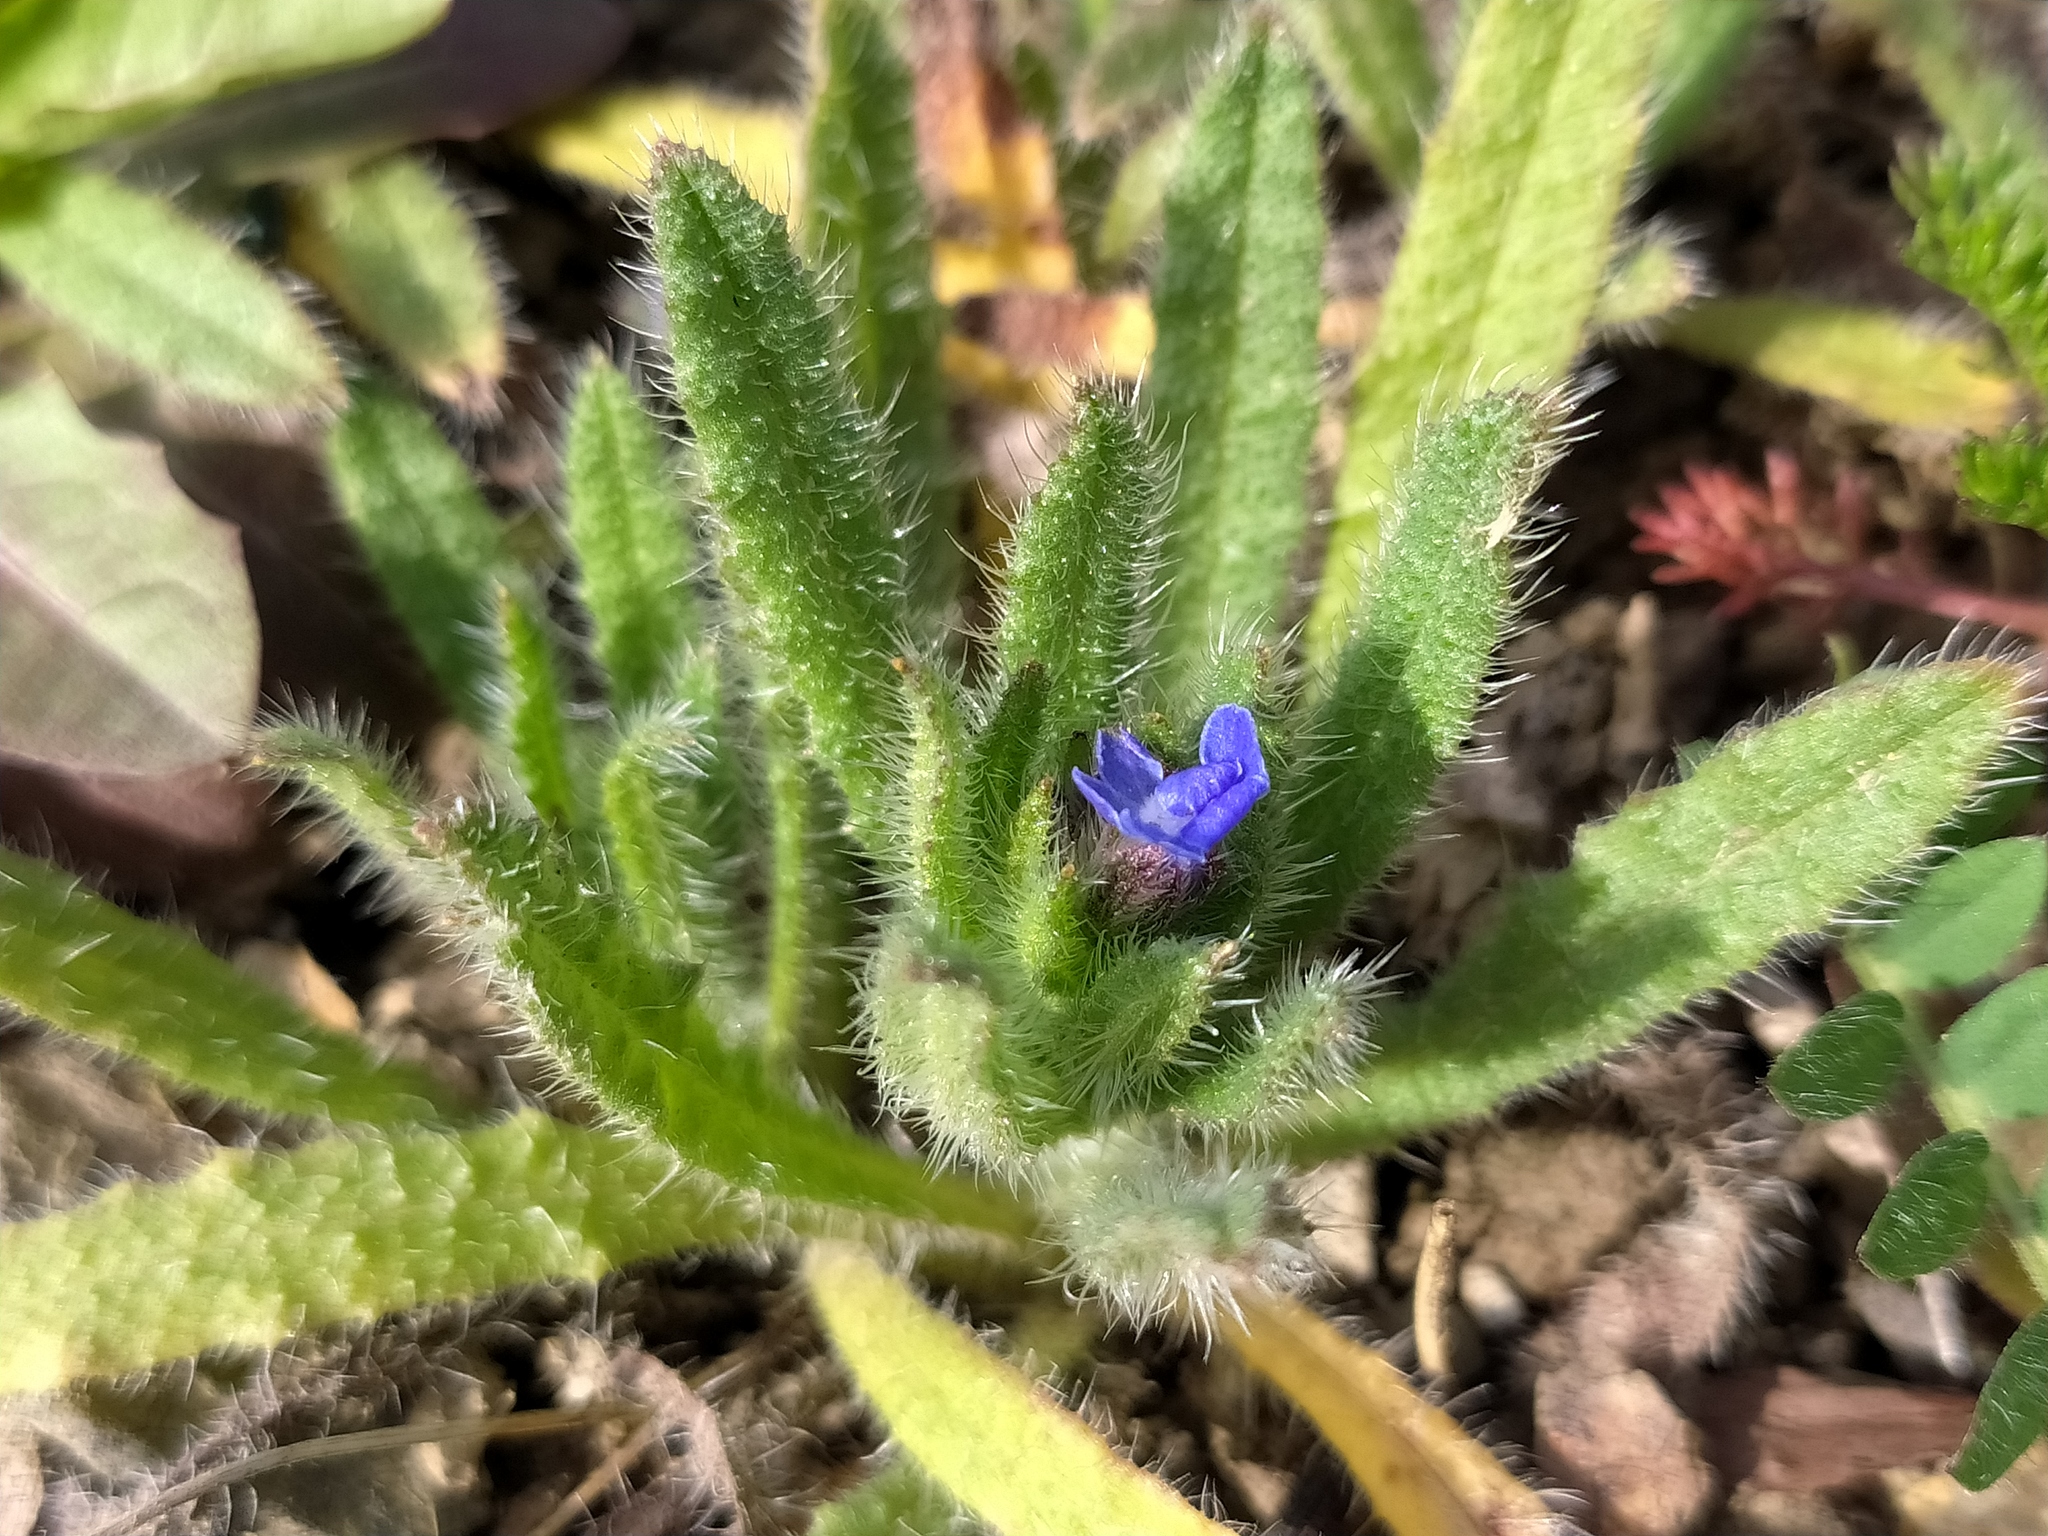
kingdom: Plantae
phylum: Tracheophyta
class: Magnoliopsida
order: Boraginales
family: Boraginaceae
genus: Lycopsis
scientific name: Lycopsis arvensis
